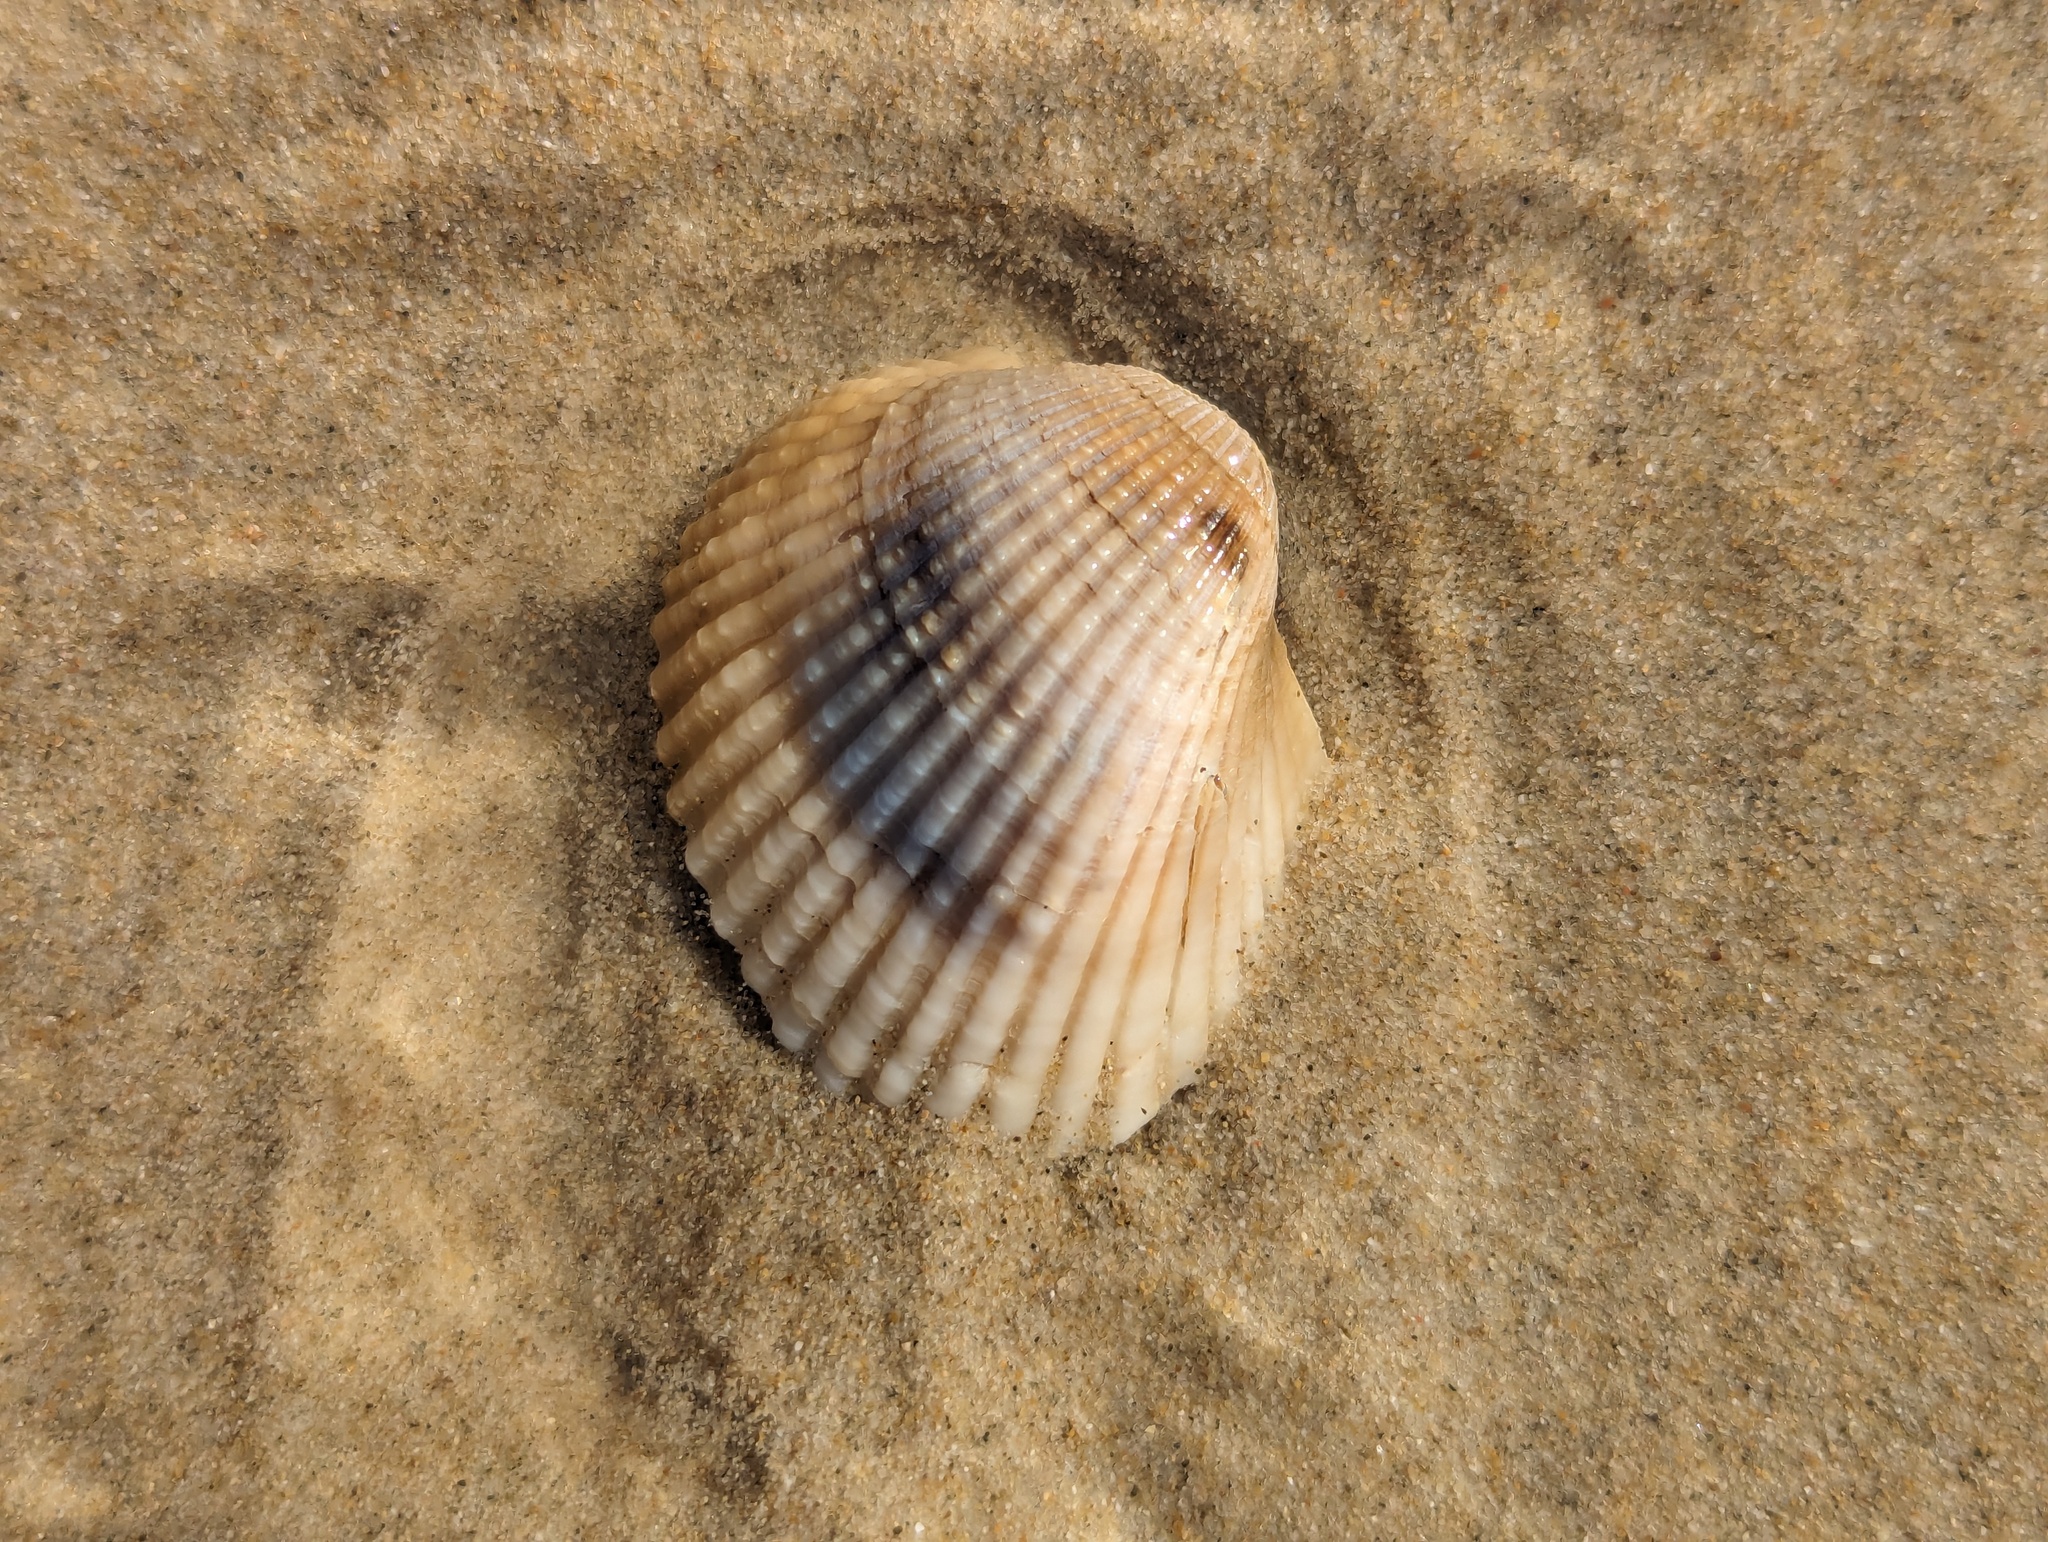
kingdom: Animalia
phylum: Mollusca
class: Bivalvia
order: Arcida
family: Arcidae
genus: Anadara
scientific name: Anadara trapezia
